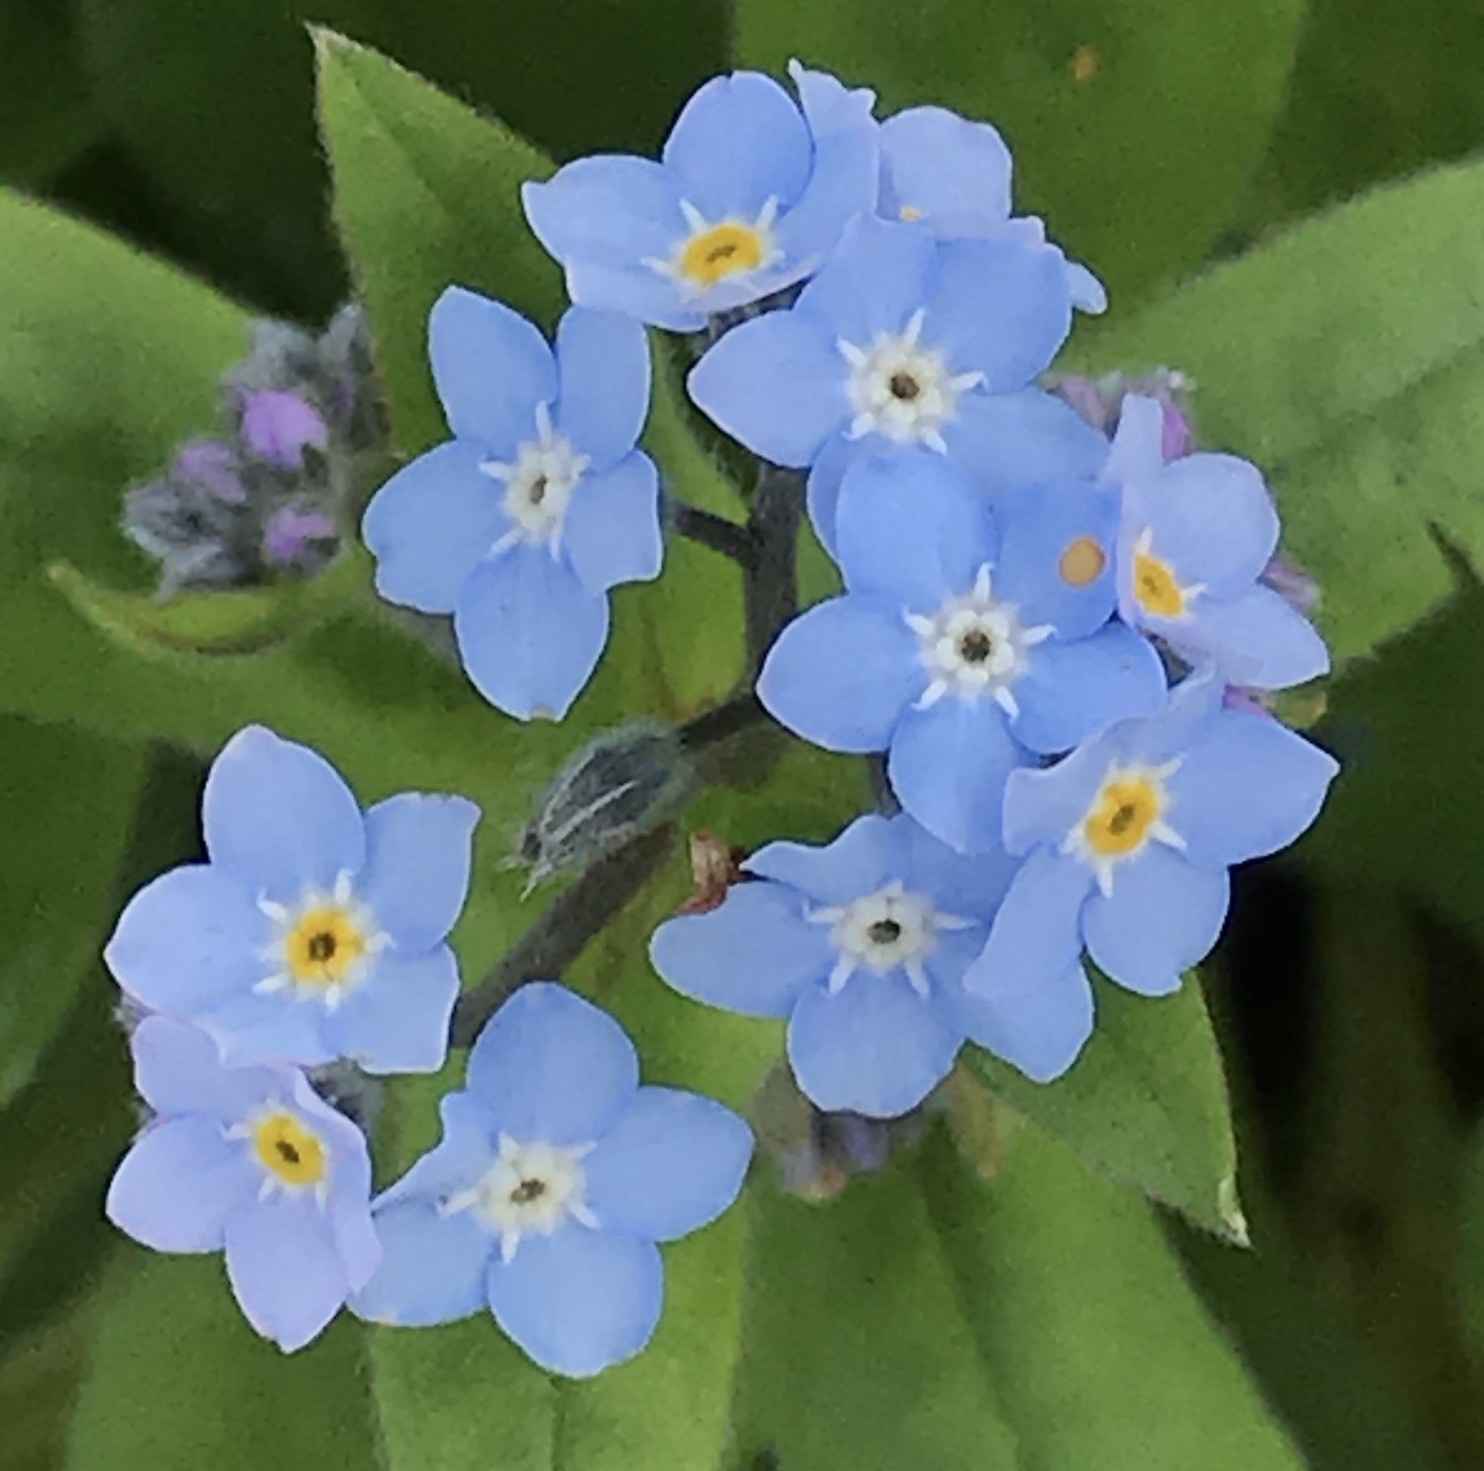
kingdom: Plantae
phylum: Tracheophyta
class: Magnoliopsida
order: Boraginales
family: Boraginaceae
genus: Myosotis
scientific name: Myosotis latifolia
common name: Broadleaf forget-me-not
